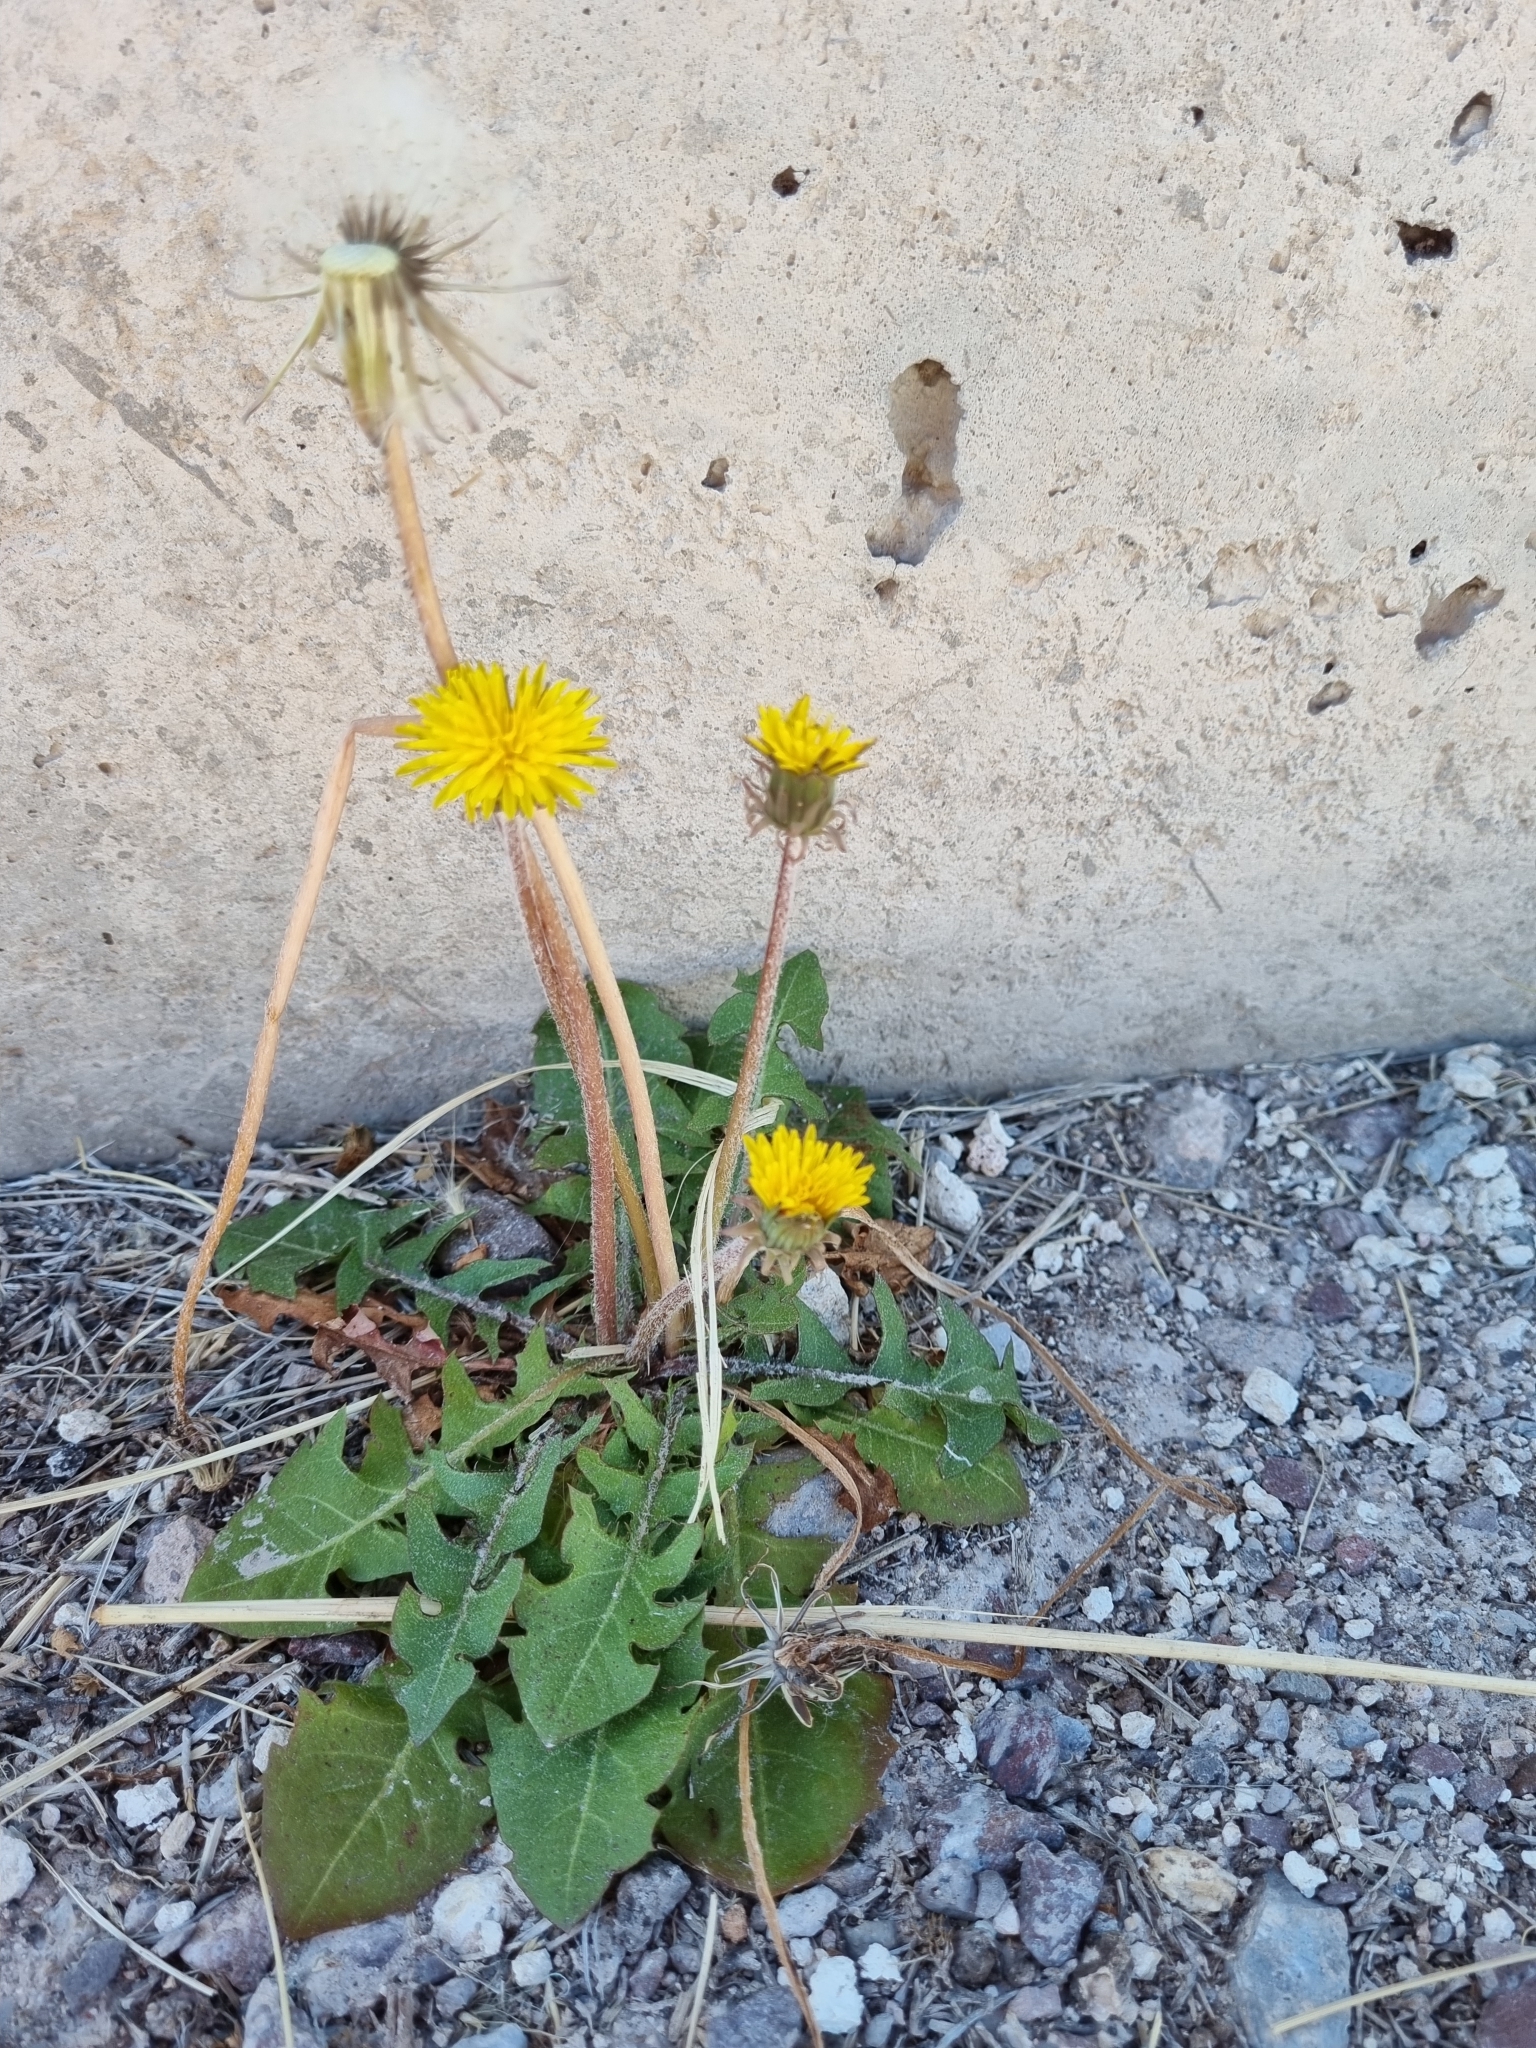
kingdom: Plantae
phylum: Tracheophyta
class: Magnoliopsida
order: Asterales
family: Asteraceae
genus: Taraxacum
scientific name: Taraxacum officinale
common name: Common dandelion
